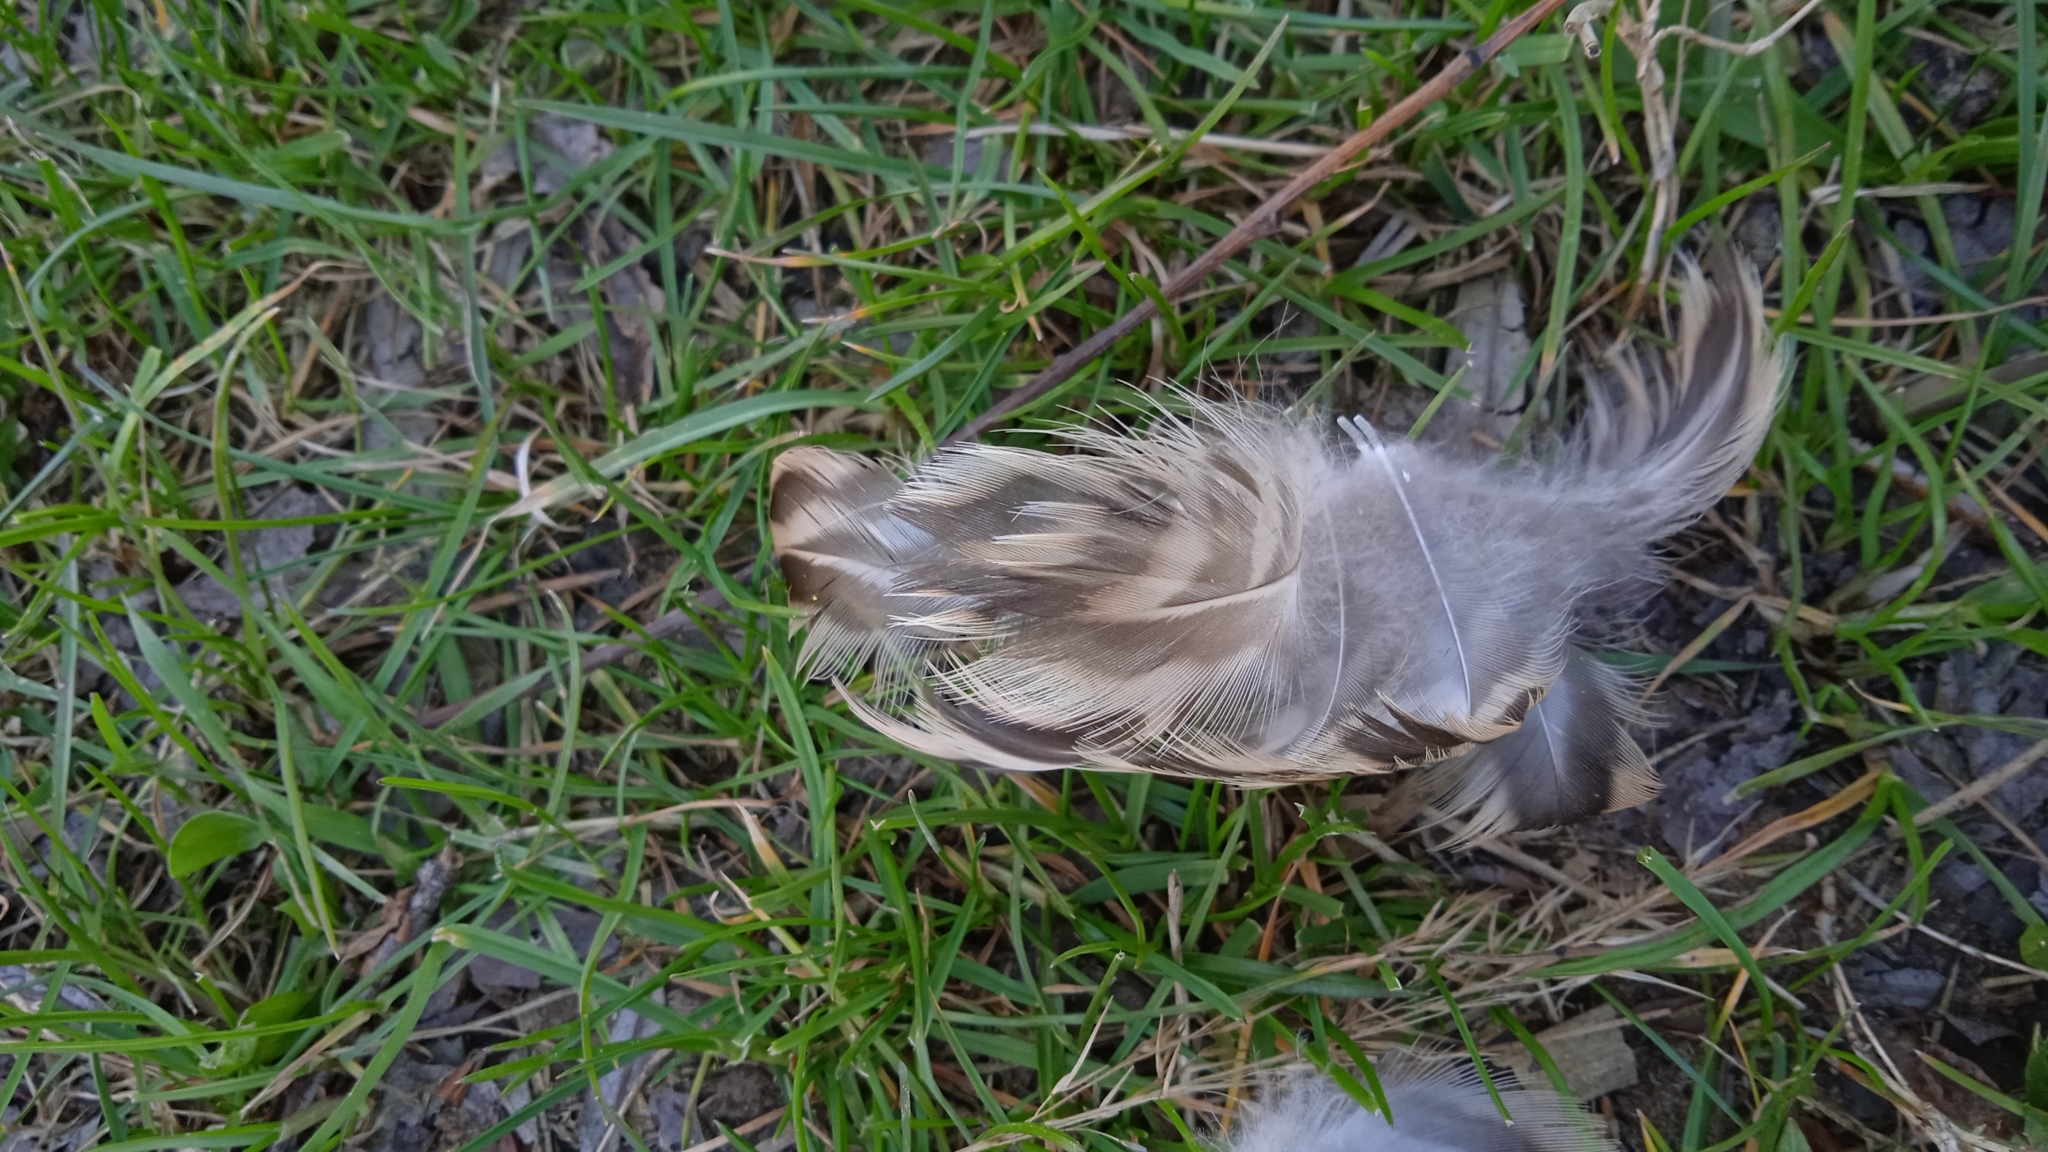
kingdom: Animalia
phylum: Chordata
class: Aves
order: Anseriformes
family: Anatidae
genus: Anas
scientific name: Anas platyrhynchos
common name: Mallard
